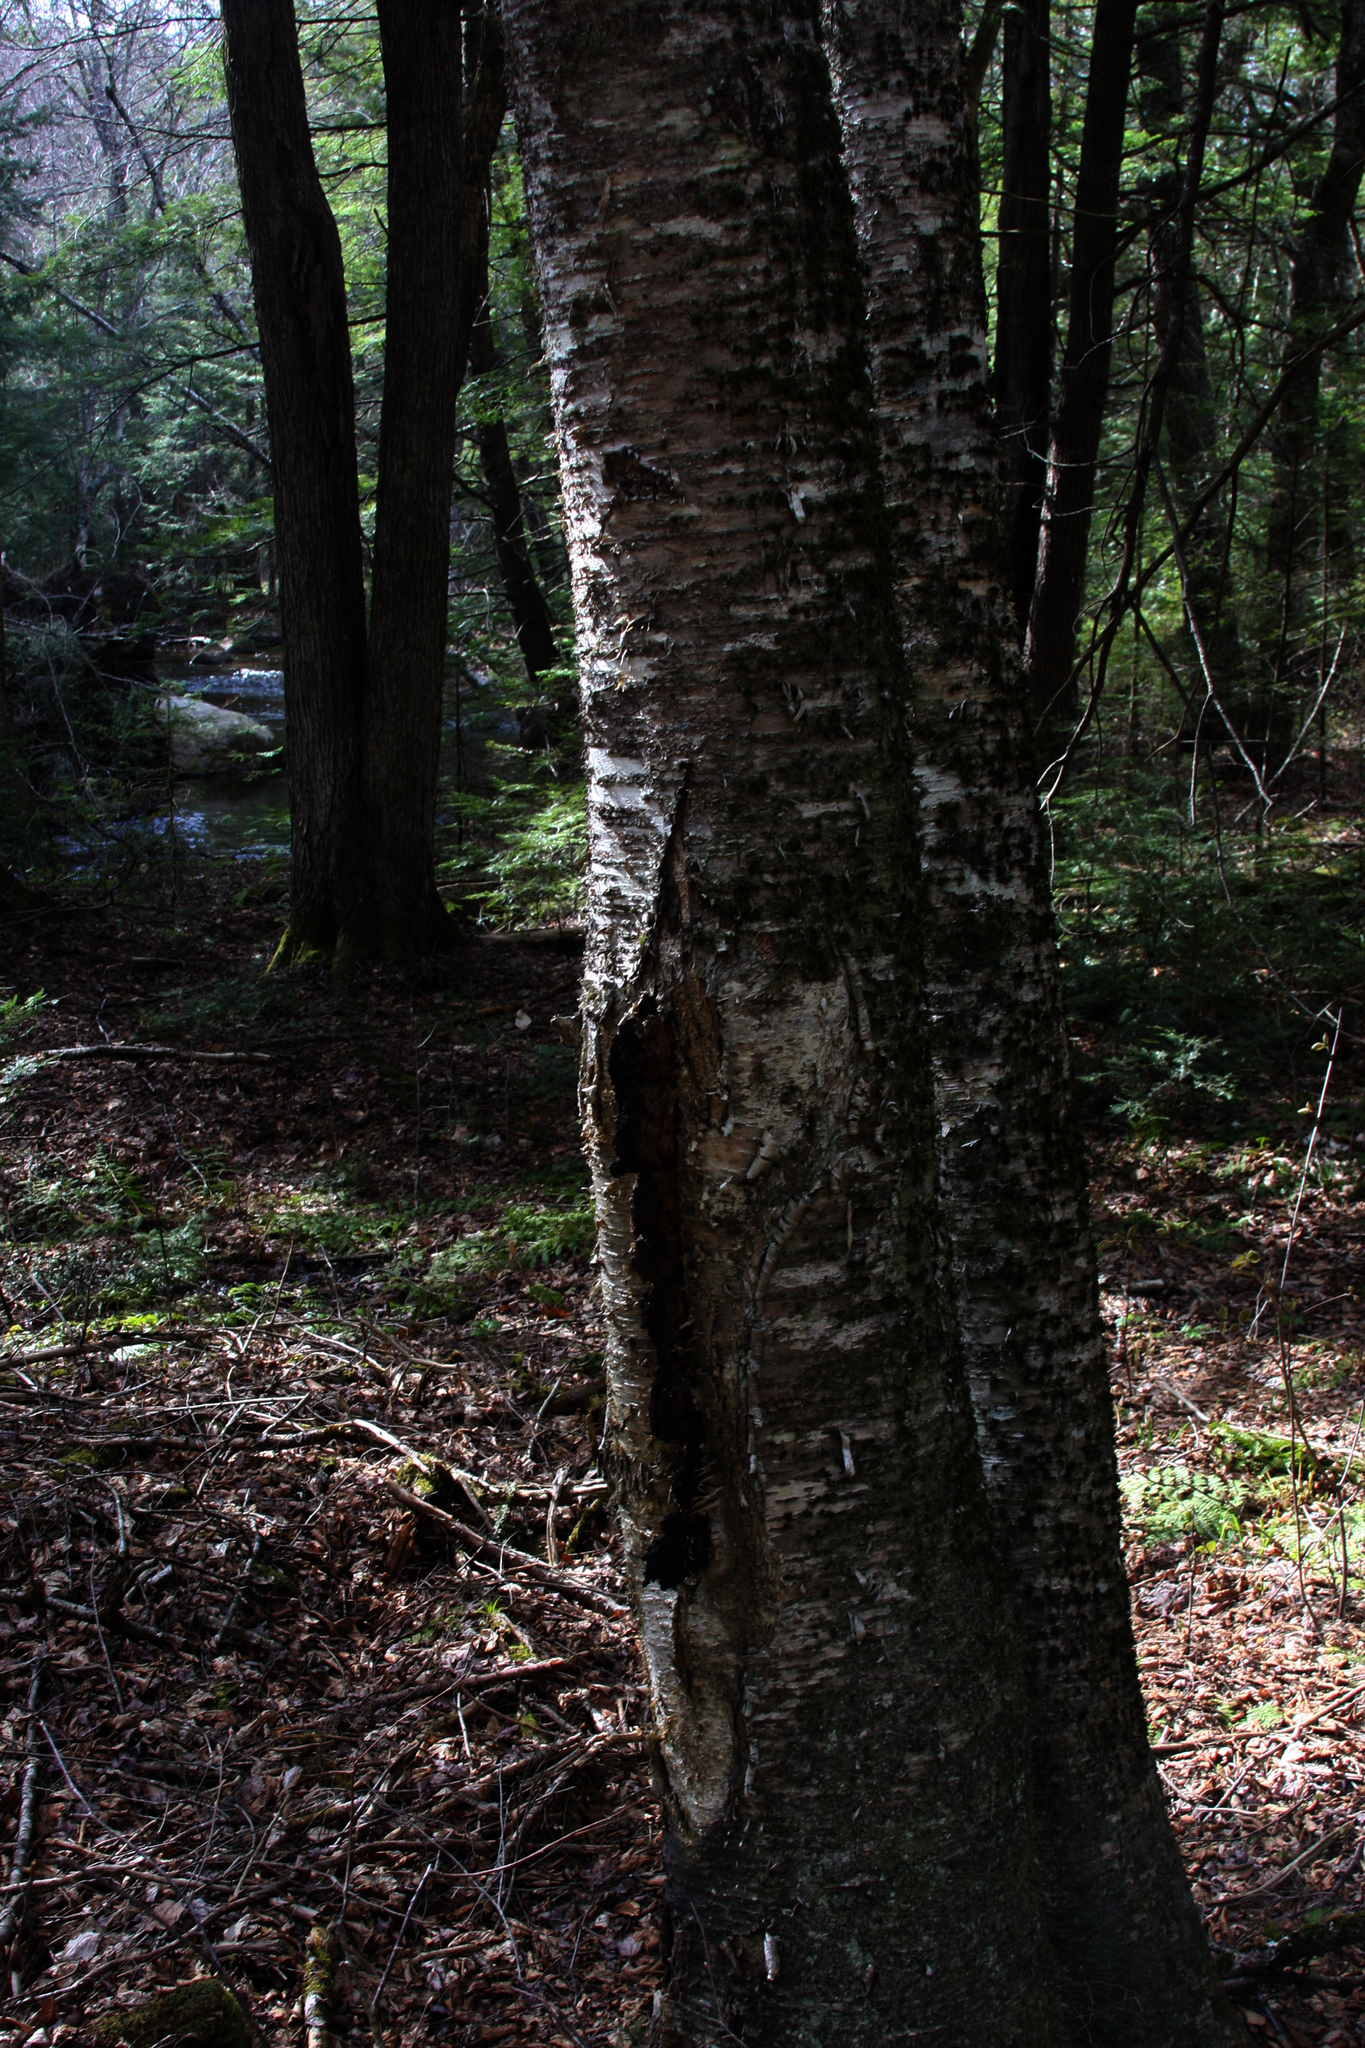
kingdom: Fungi
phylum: Basidiomycota
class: Agaricomycetes
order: Hymenochaetales
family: Hymenochaetaceae
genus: Inonotus
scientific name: Inonotus obliquus
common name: Chaga
